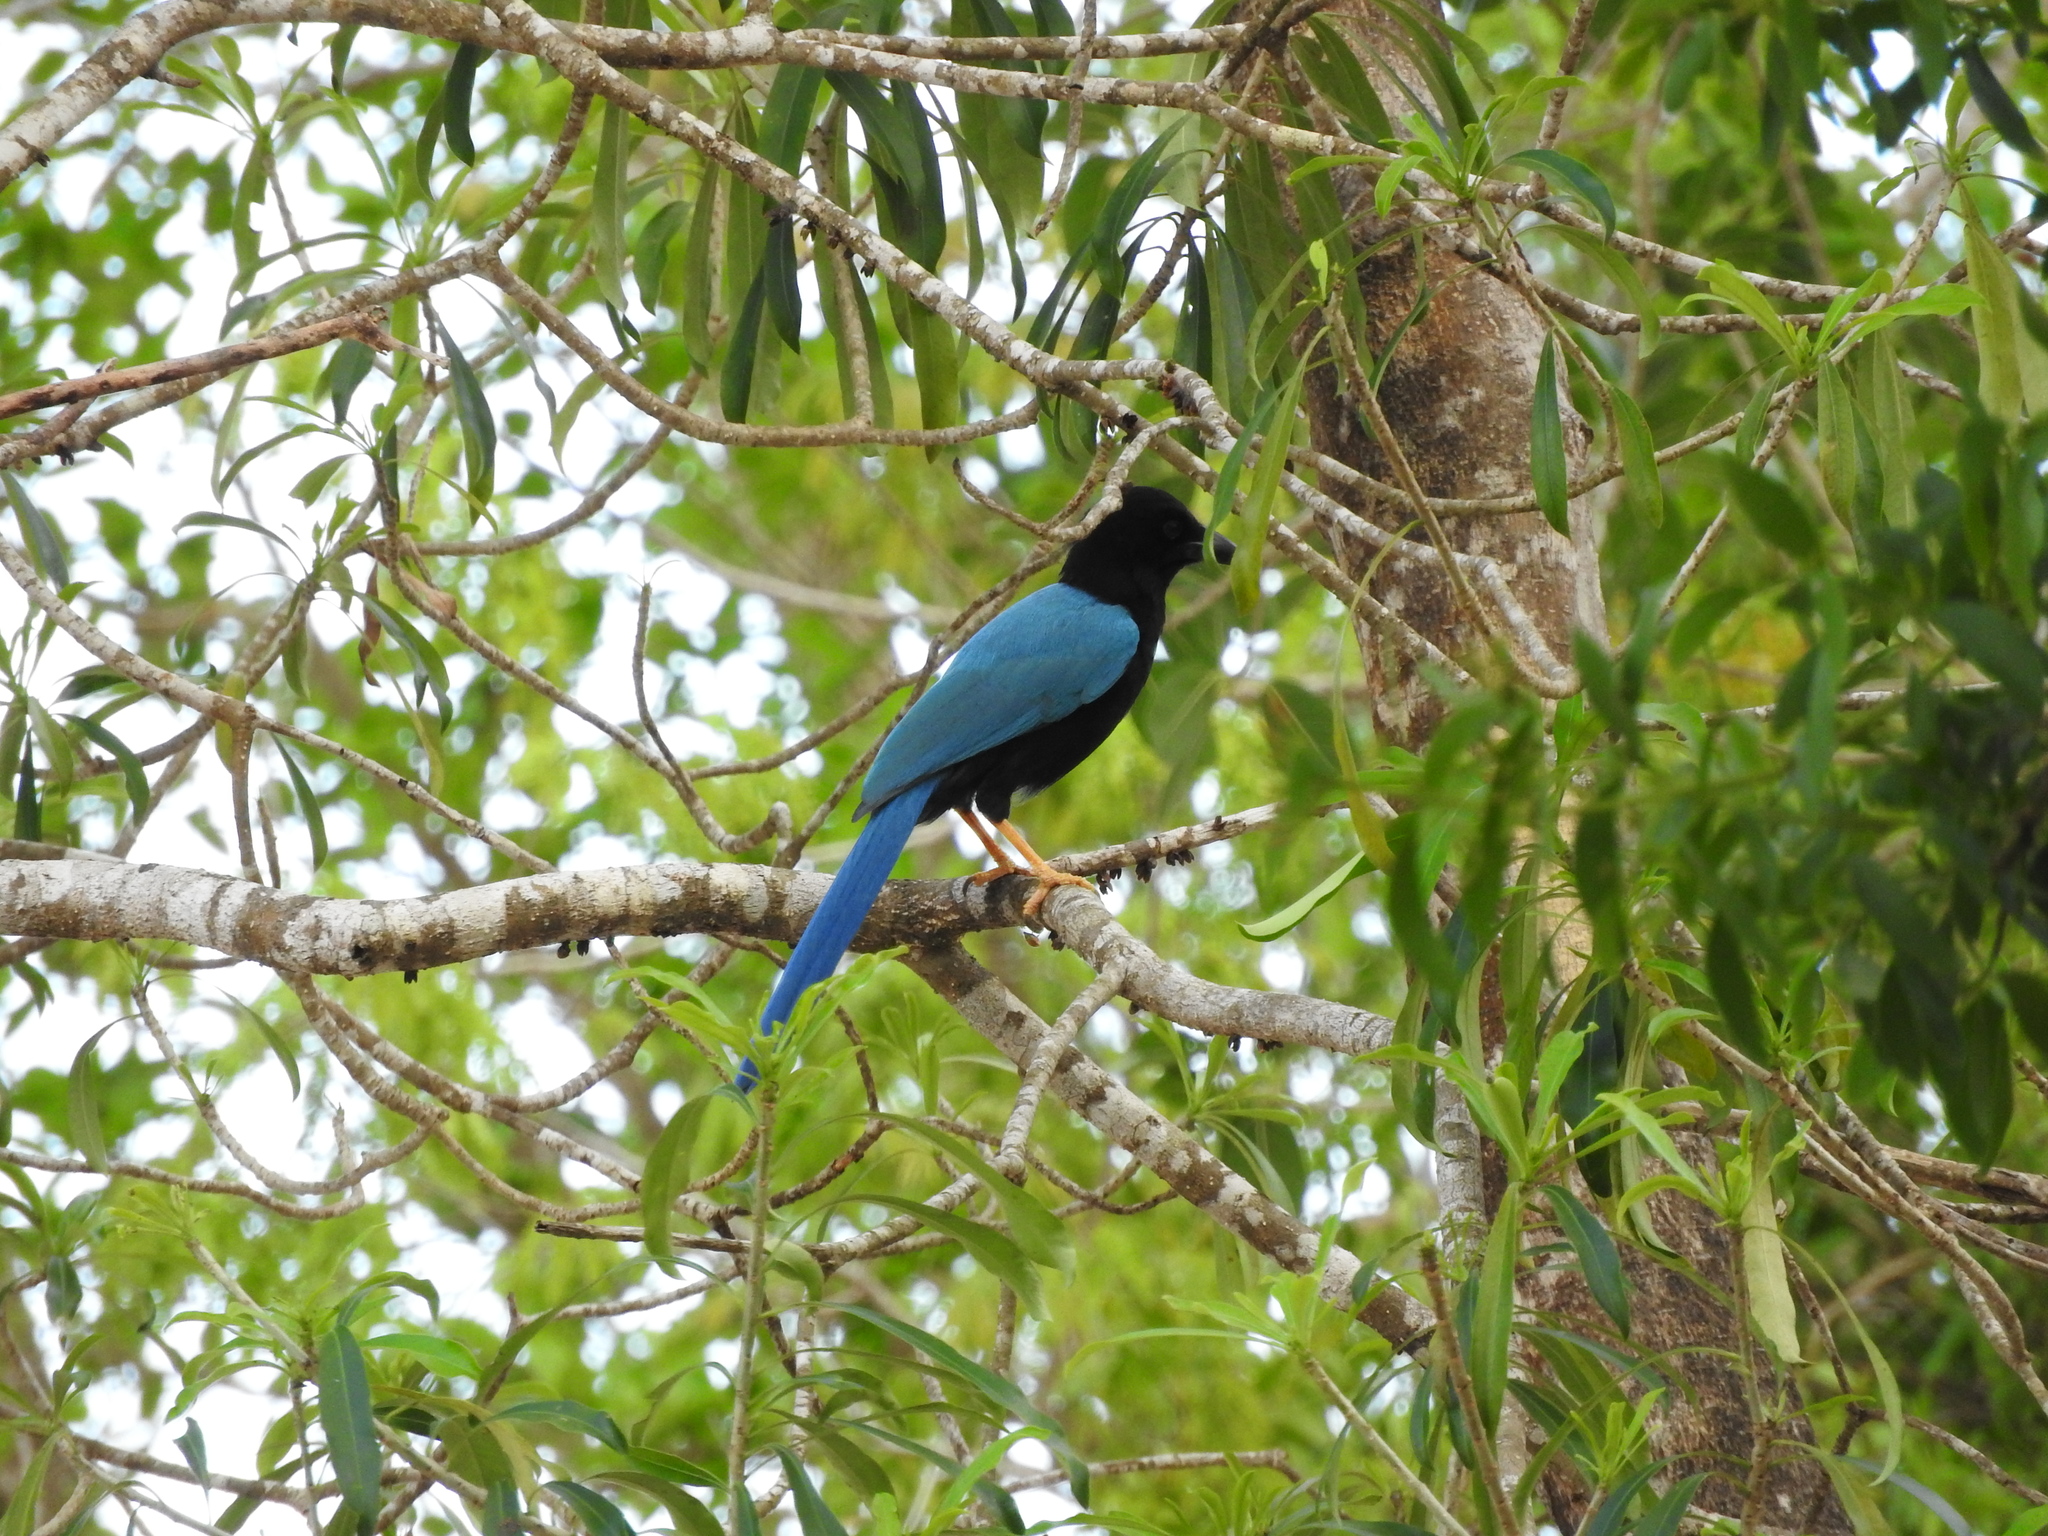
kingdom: Animalia
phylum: Chordata
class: Aves
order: Passeriformes
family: Corvidae
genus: Cyanocorax
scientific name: Cyanocorax yucatanicus
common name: Yucatan jay
